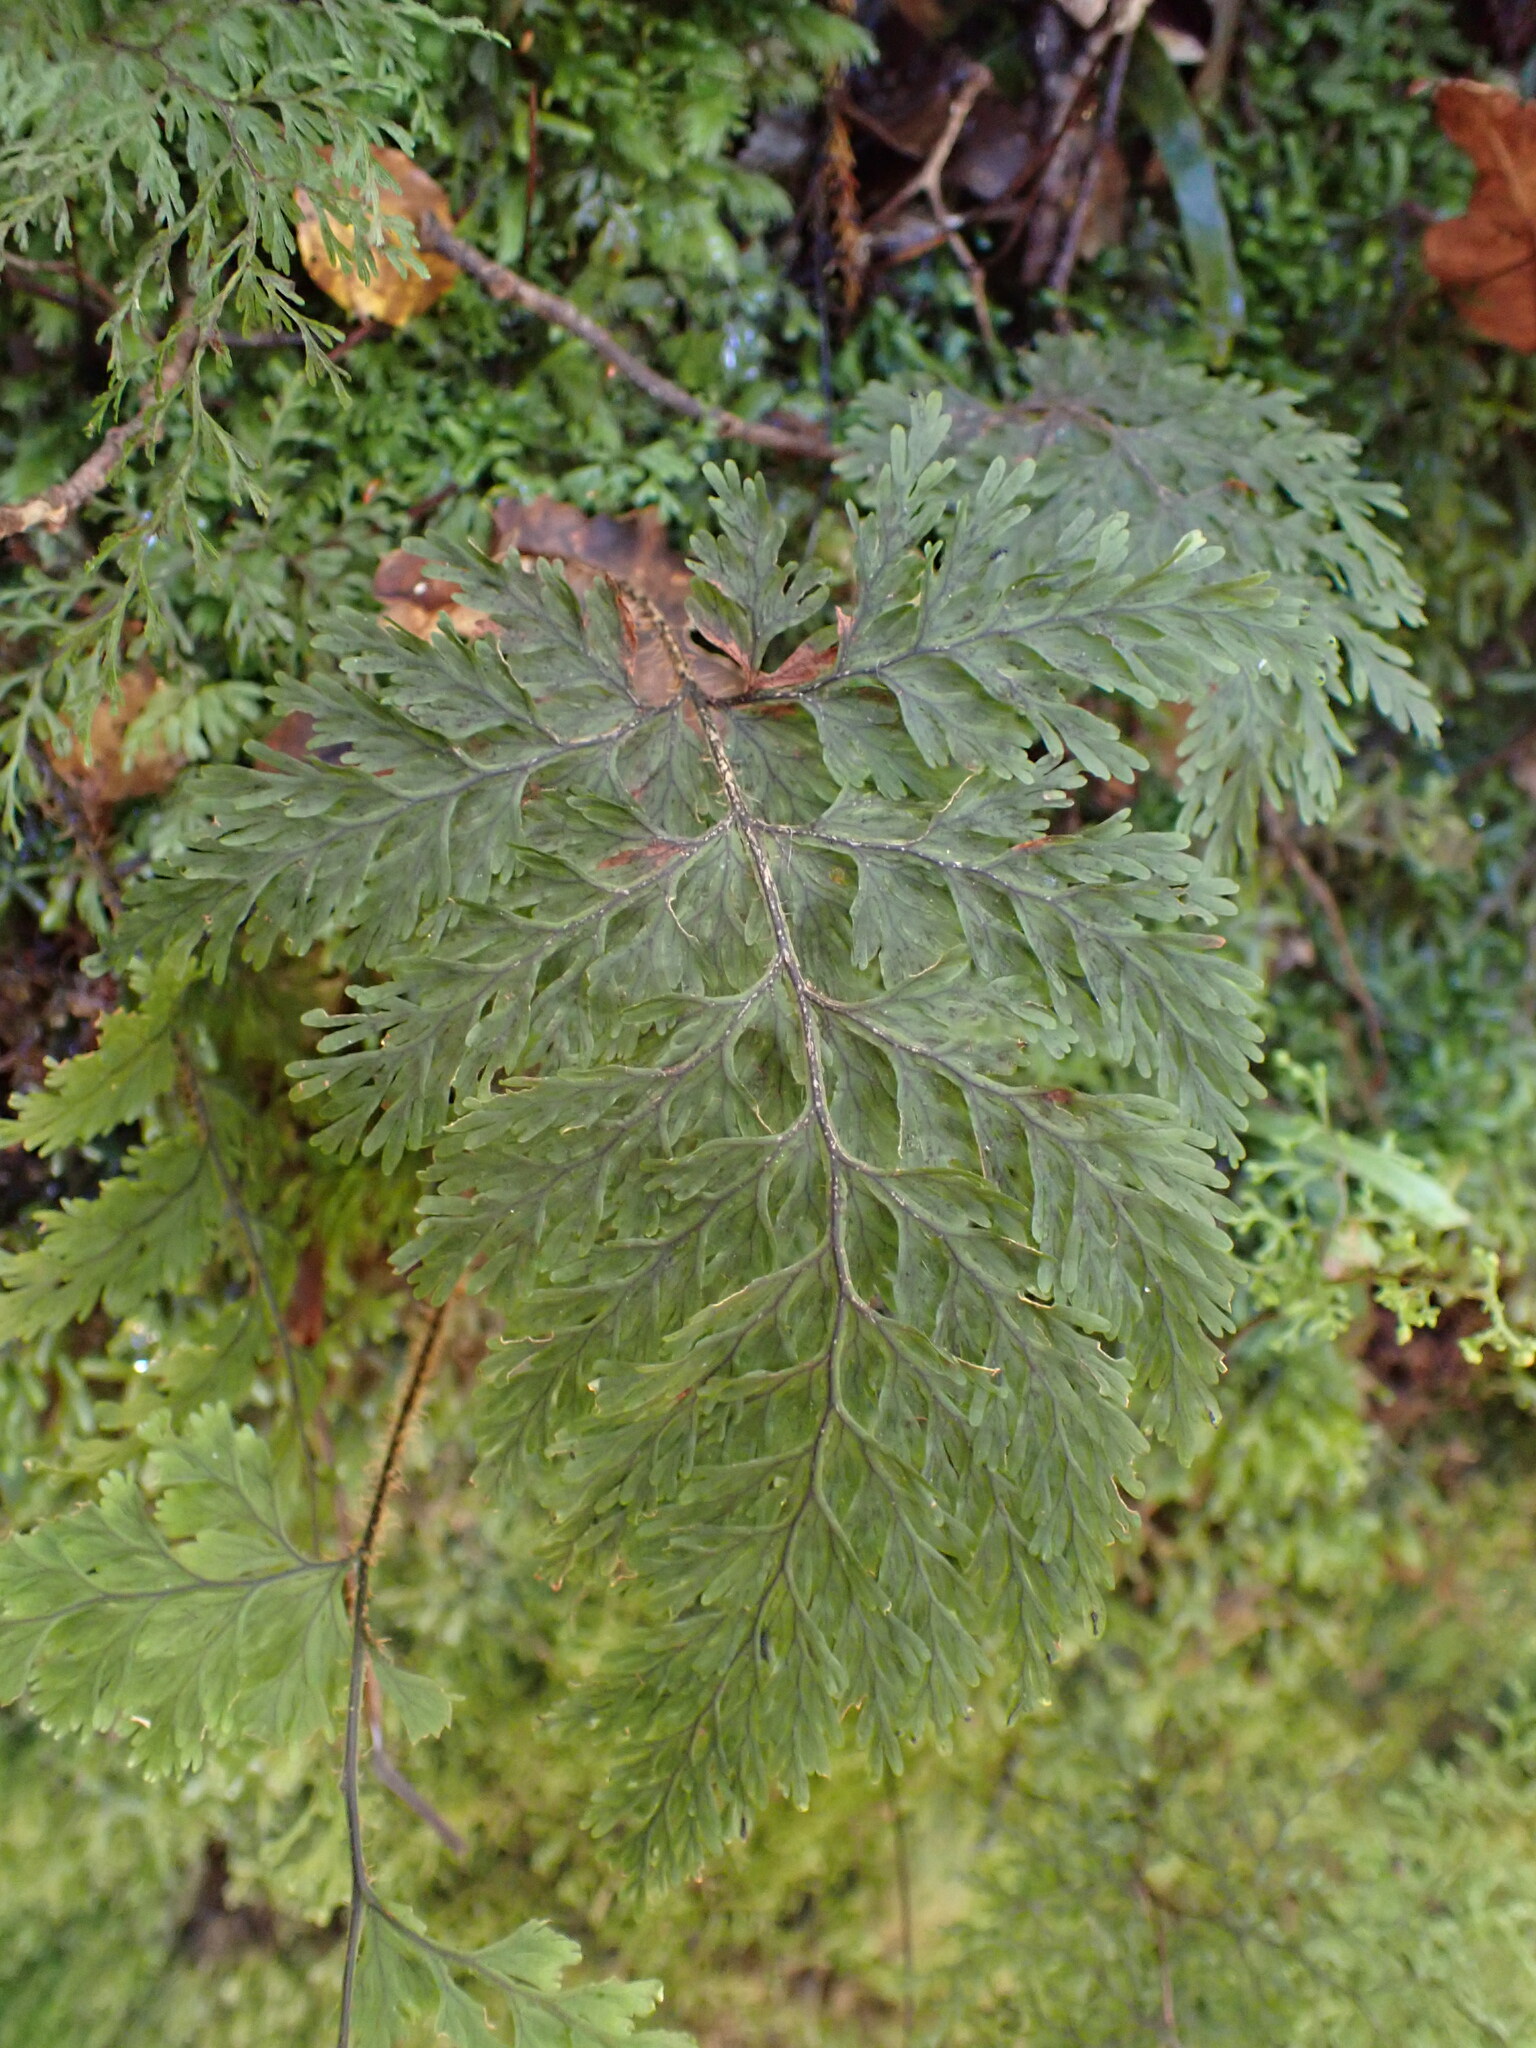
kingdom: Plantae
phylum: Tracheophyta
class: Polypodiopsida
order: Hymenophyllales
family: Hymenophyllaceae
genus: Hymenophyllum
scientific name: Hymenophyllum scabrum
